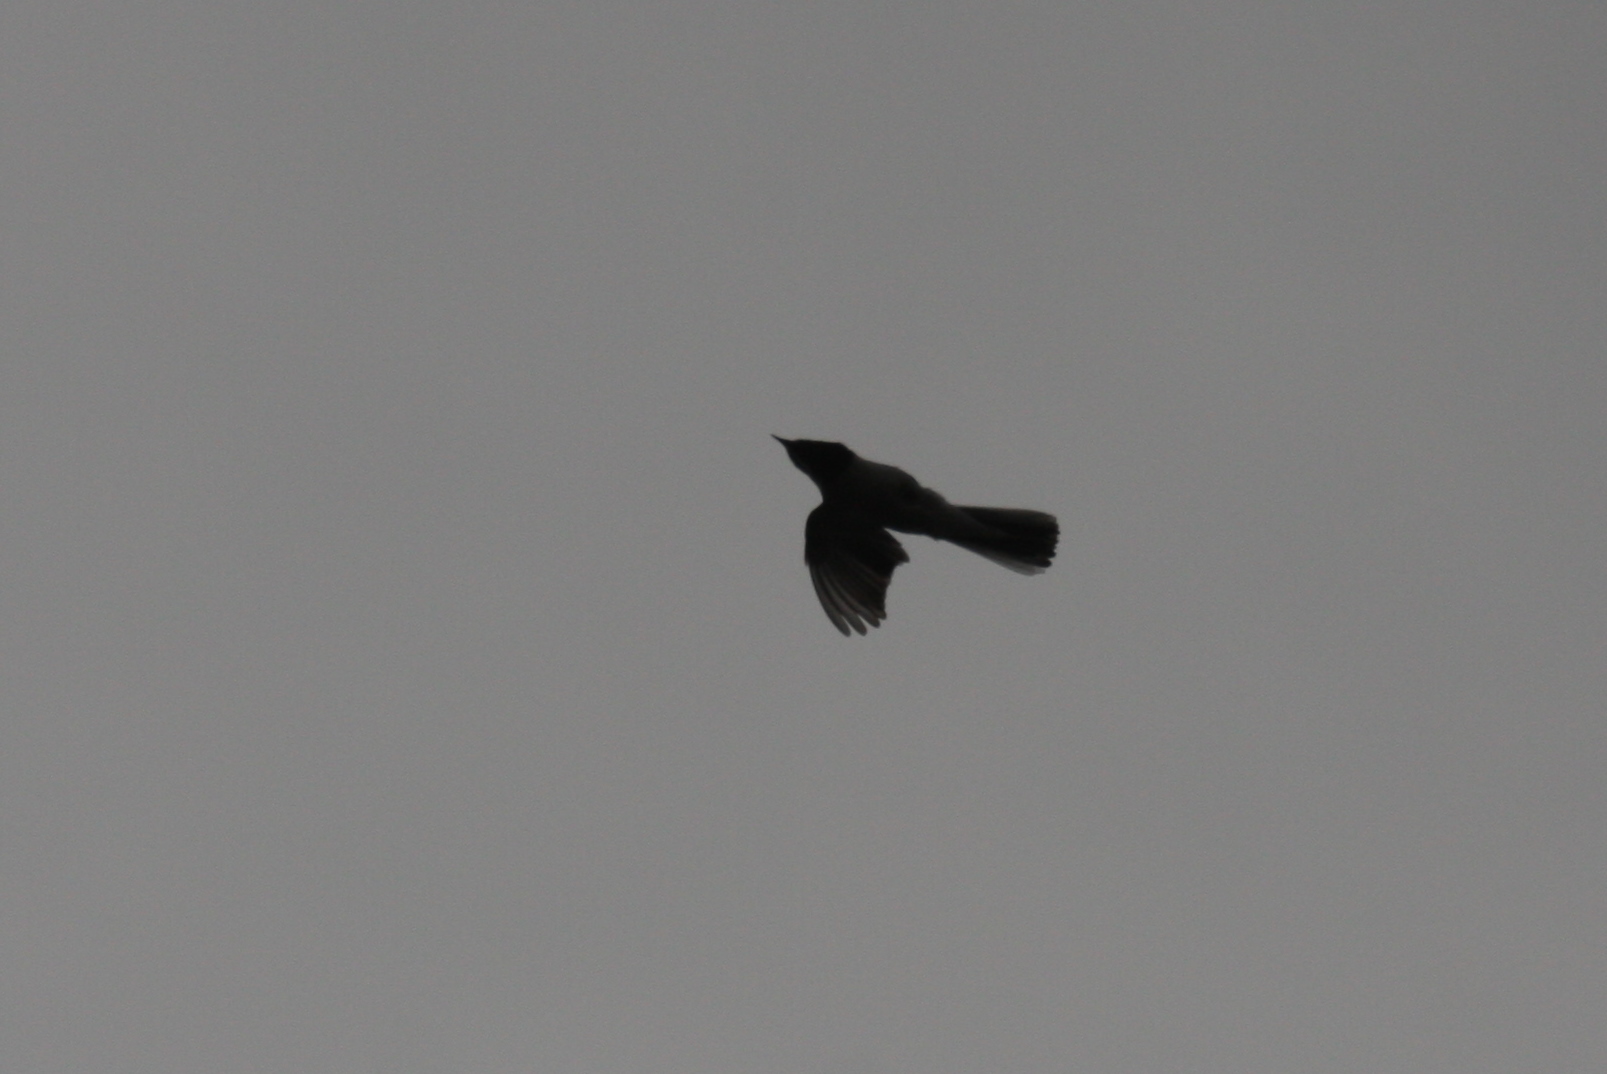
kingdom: Animalia
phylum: Chordata
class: Aves
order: Passeriformes
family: Sylviidae
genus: Sylvia
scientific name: Sylvia ruppeli
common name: Rüppell's warbler
